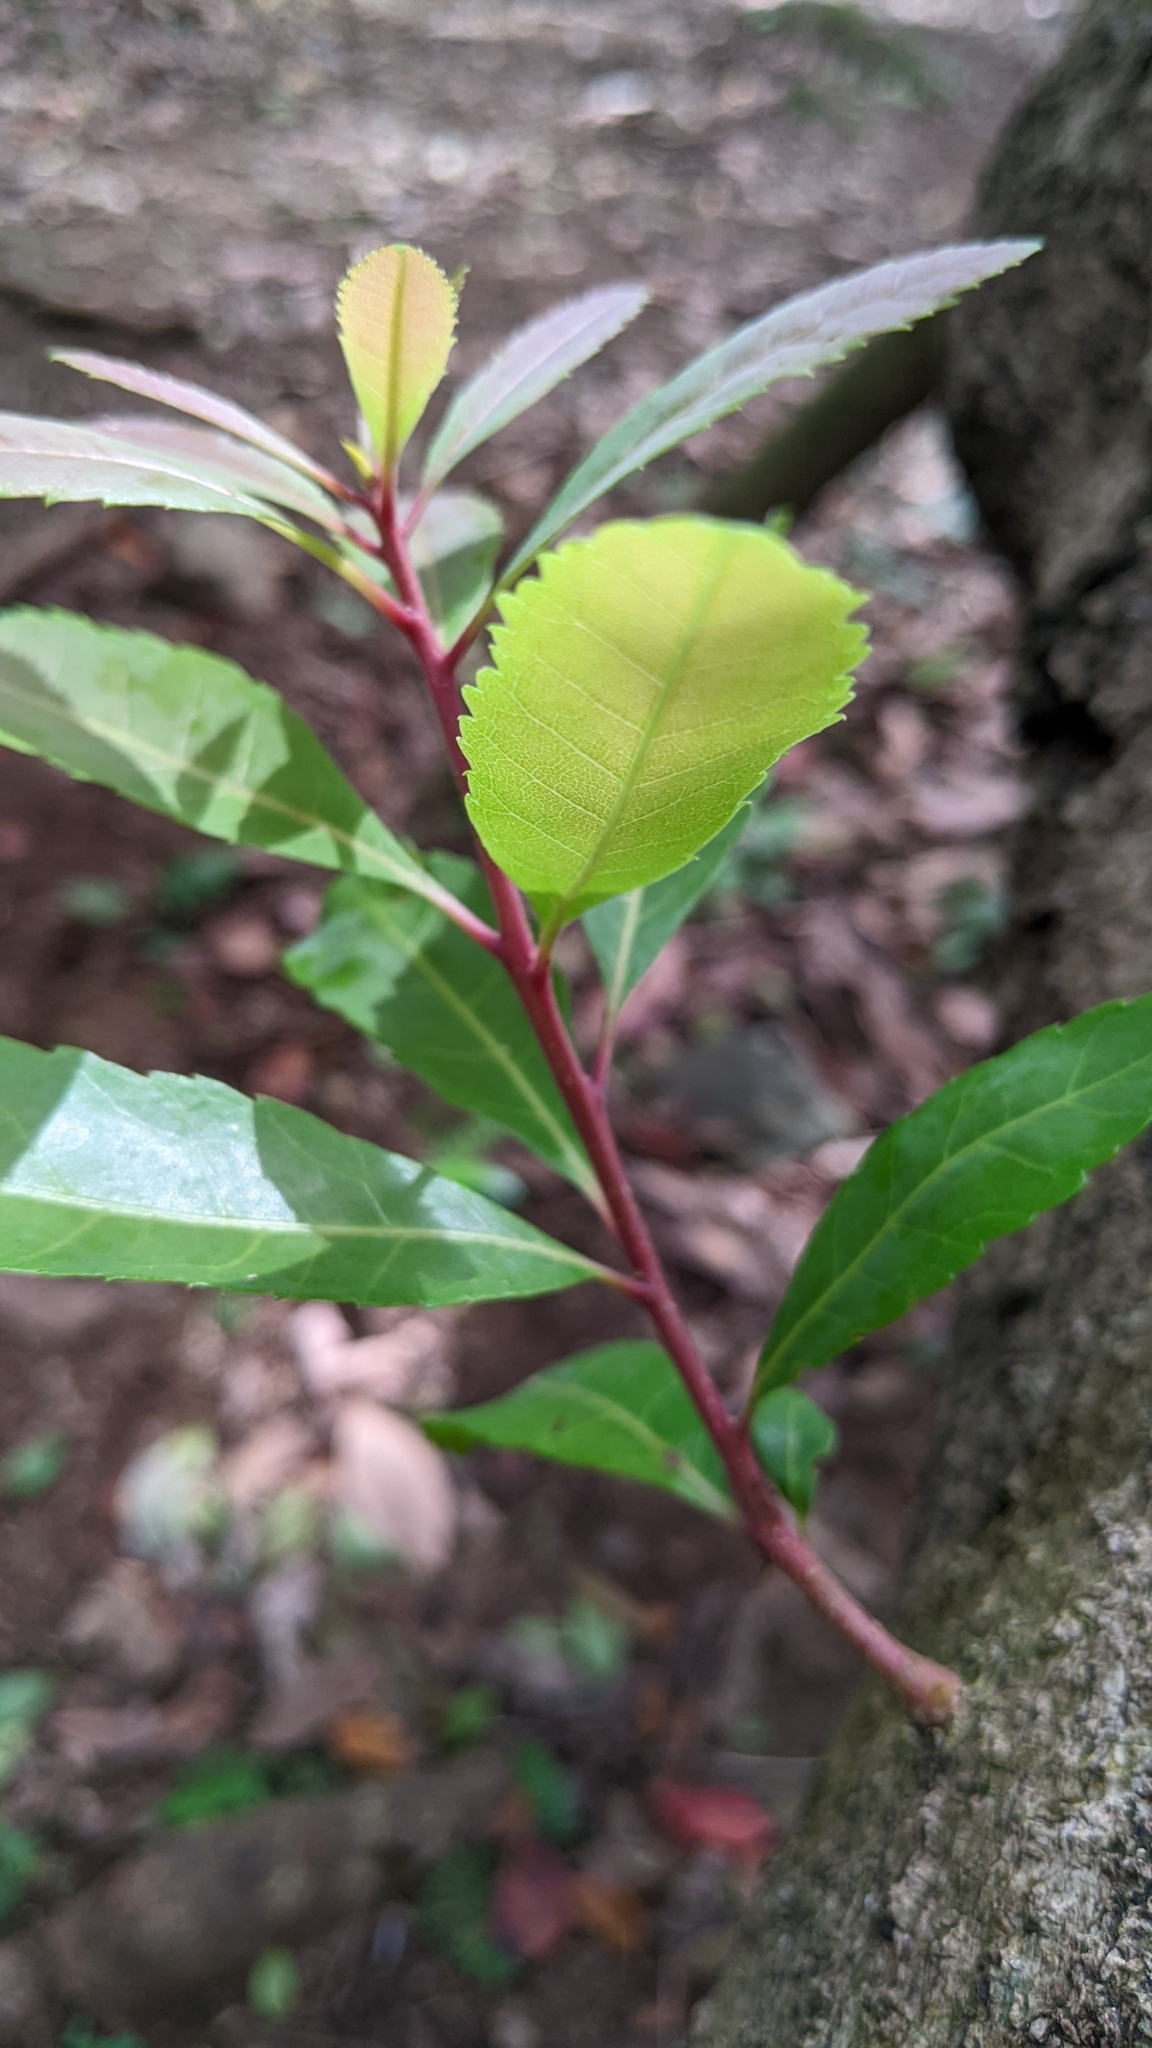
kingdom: Plantae
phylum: Tracheophyta
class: Magnoliopsida
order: Fagales
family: Myricaceae
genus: Morella
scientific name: Morella rubra
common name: Red bayberry
